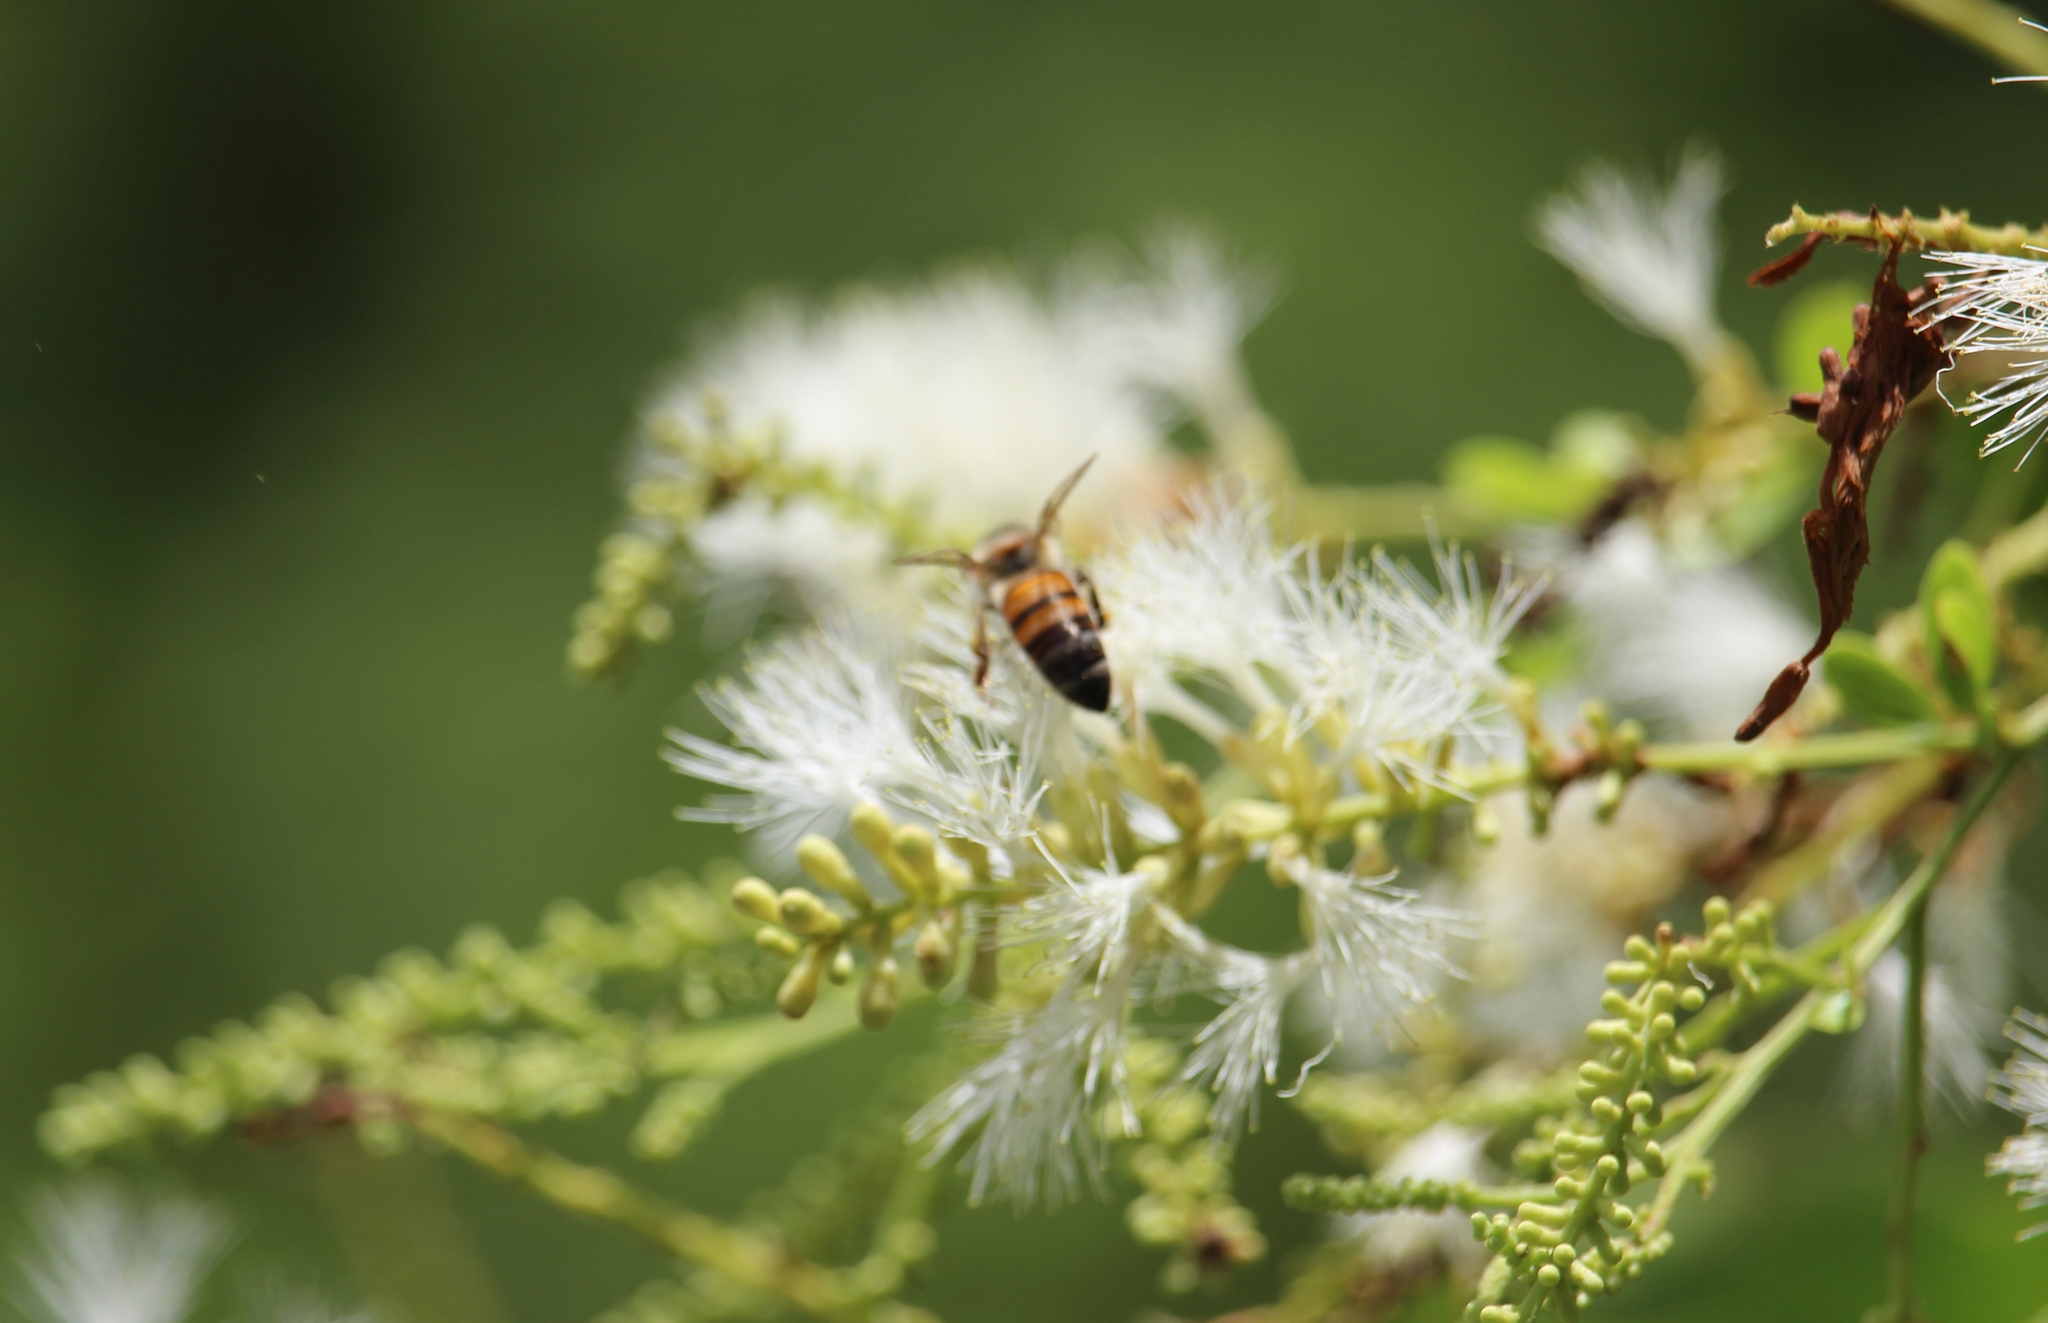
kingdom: Animalia
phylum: Arthropoda
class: Insecta
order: Hymenoptera
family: Apidae
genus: Apis
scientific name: Apis mellifera
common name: Honey bee
